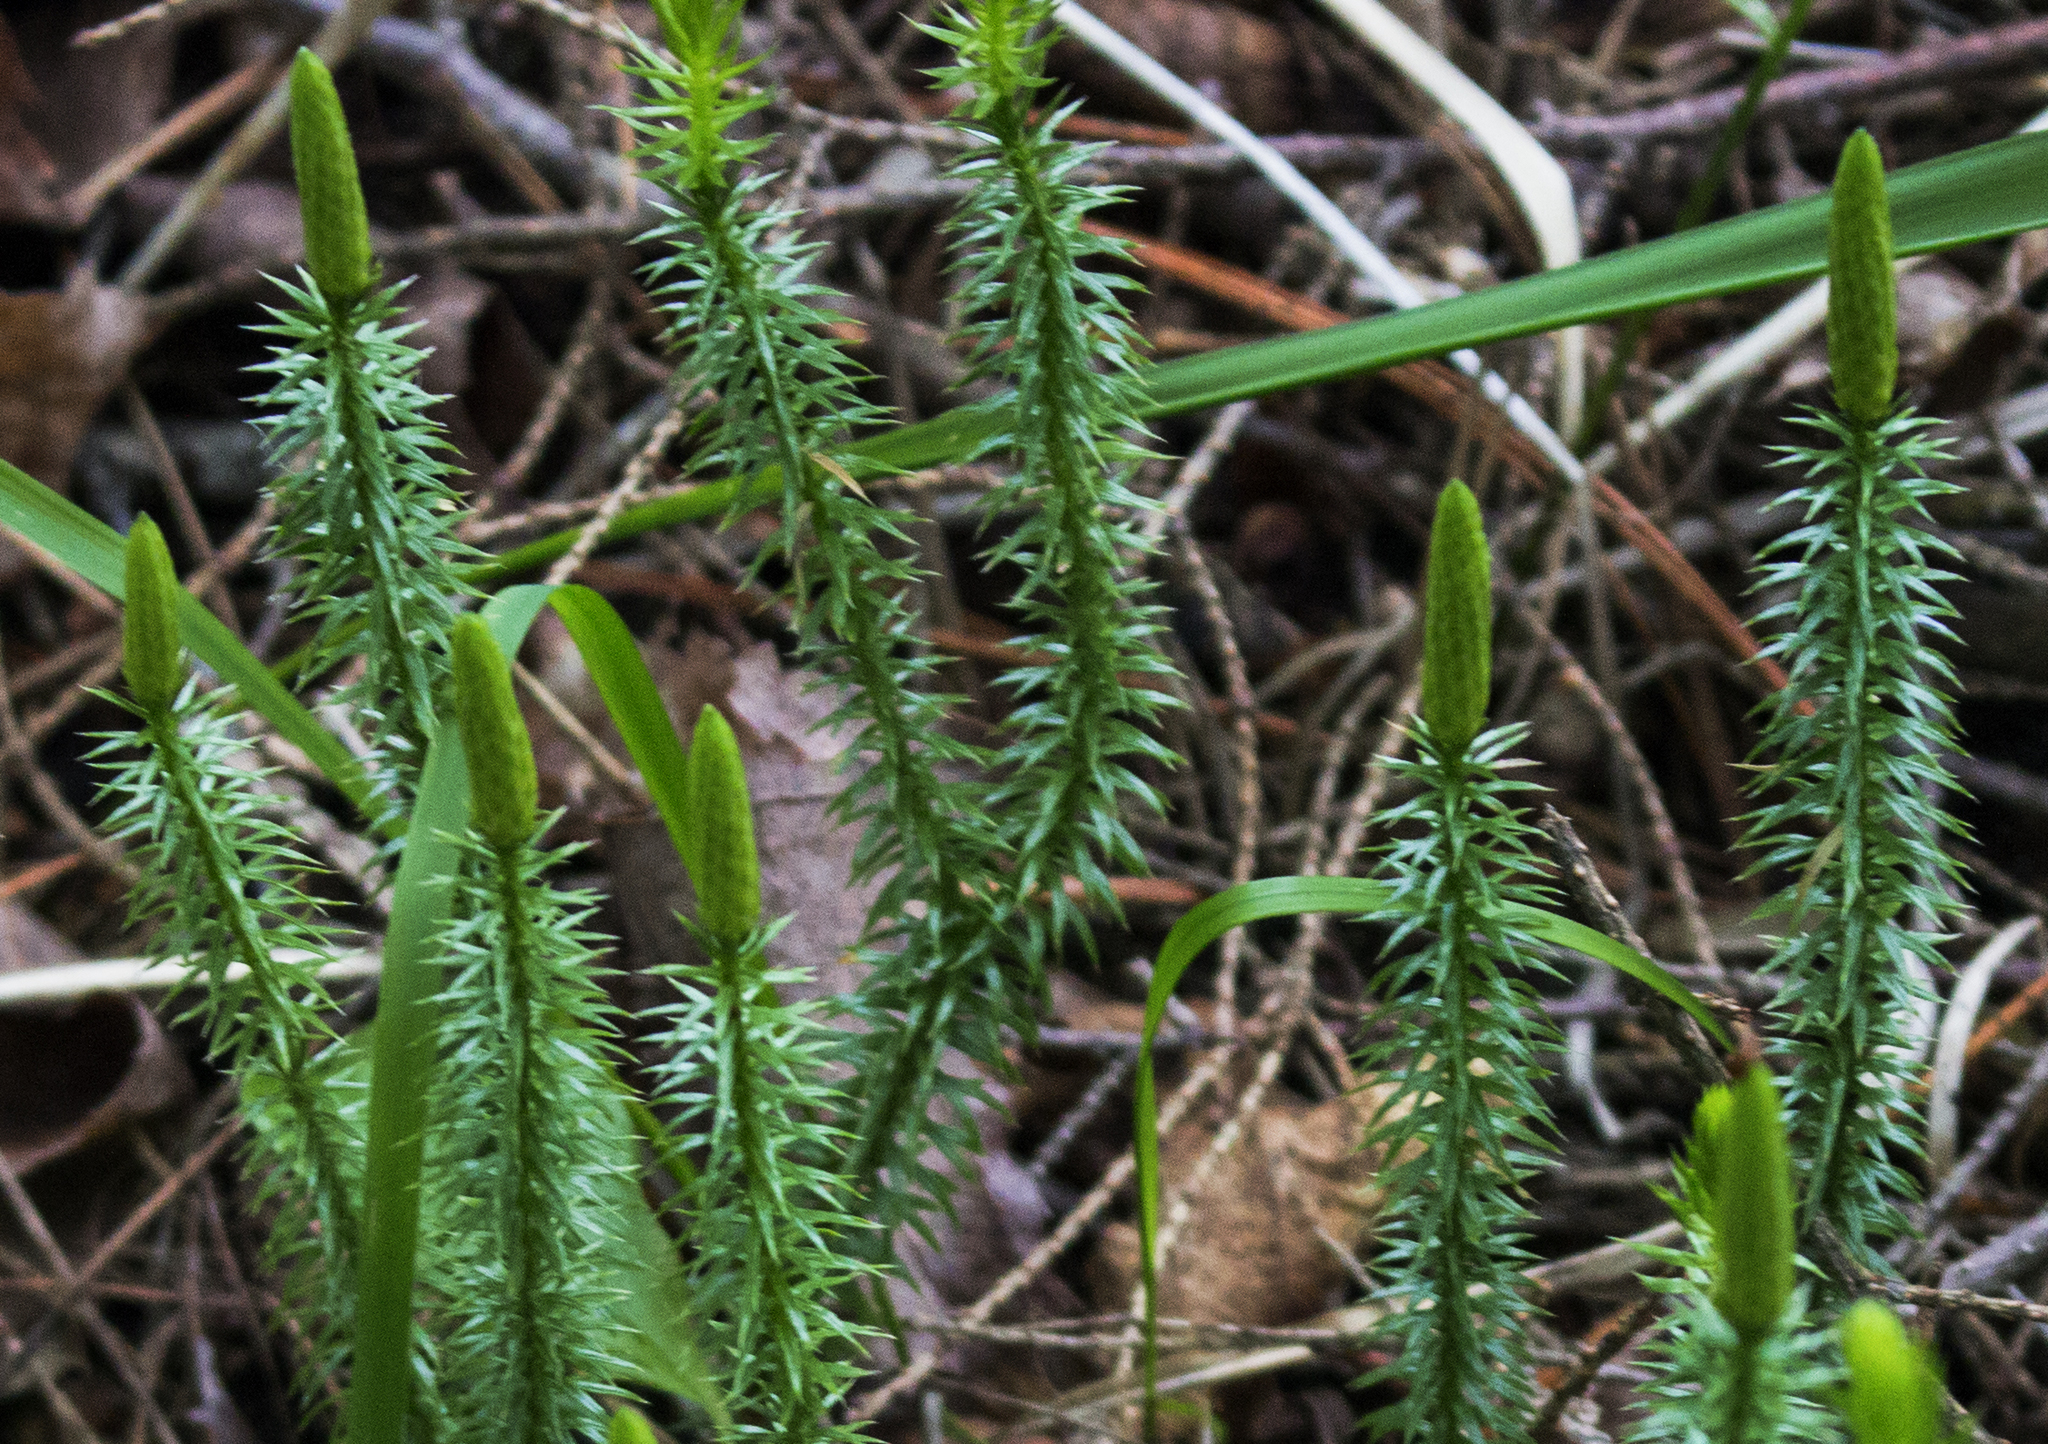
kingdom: Plantae
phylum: Tracheophyta
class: Lycopodiopsida
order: Lycopodiales
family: Lycopodiaceae
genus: Spinulum
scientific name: Spinulum annotinum
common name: Interrupted club-moss
